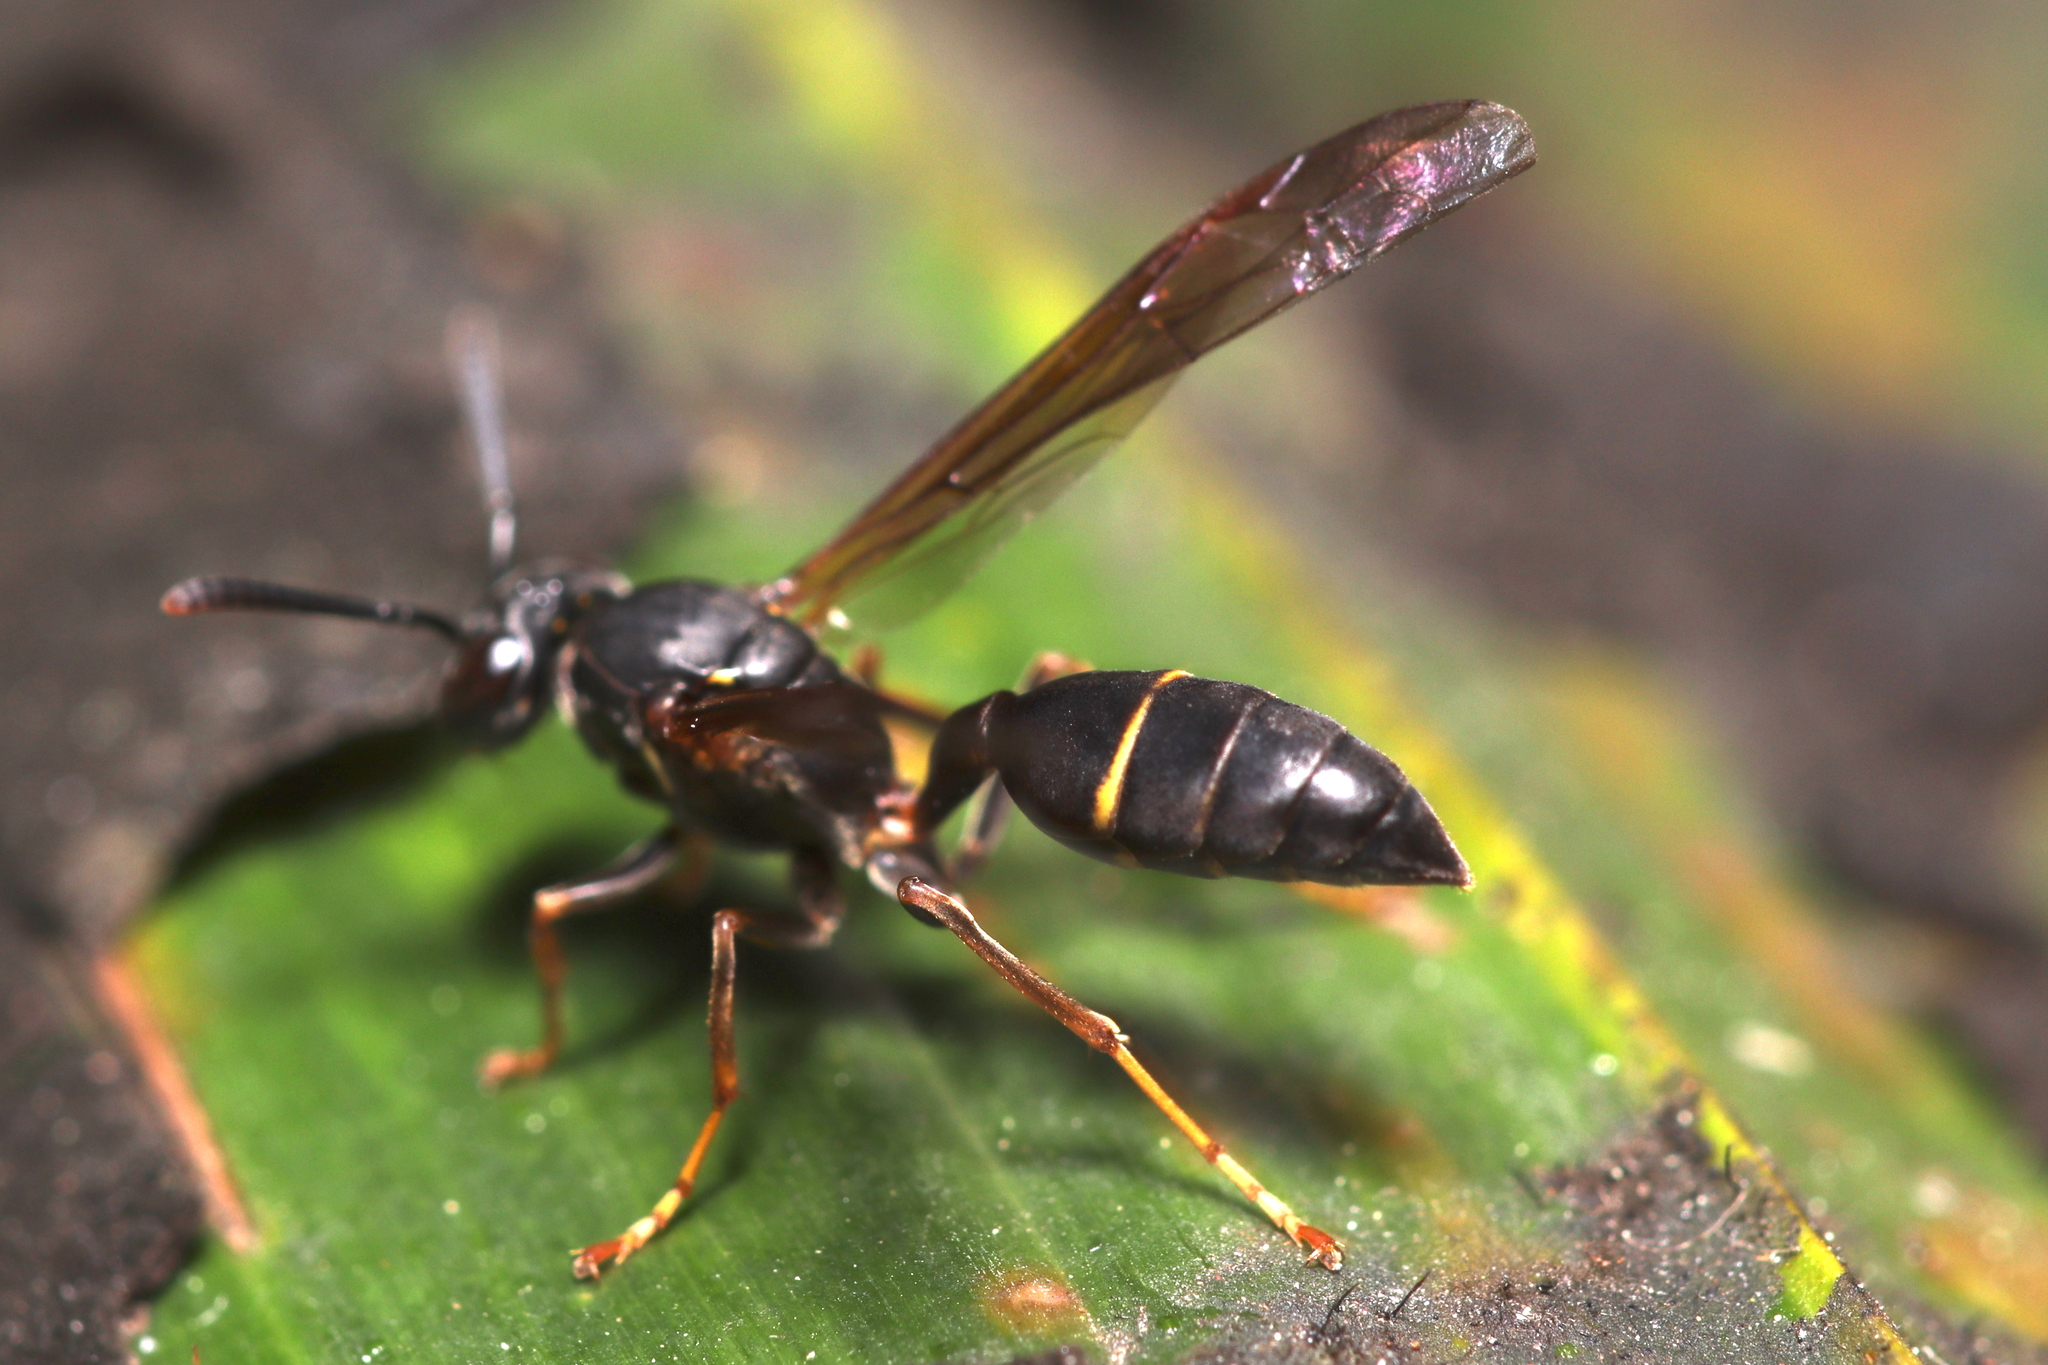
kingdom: Animalia
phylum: Arthropoda
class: Insecta
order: Hymenoptera
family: Vespidae
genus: Agelaia
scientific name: Agelaia vicina
